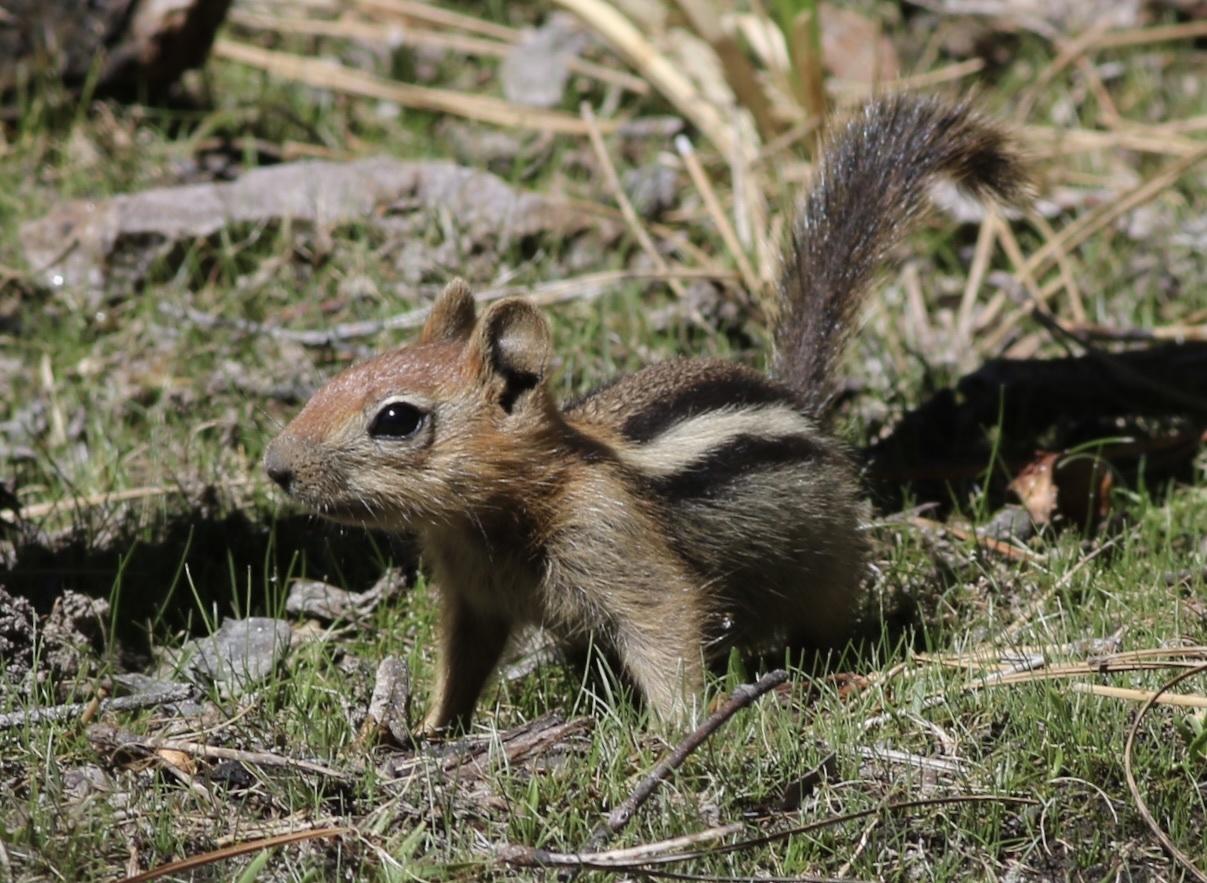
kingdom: Animalia
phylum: Chordata
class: Mammalia
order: Rodentia
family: Sciuridae
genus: Callospermophilus
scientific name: Callospermophilus lateralis
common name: Golden-mantled ground squirrel
